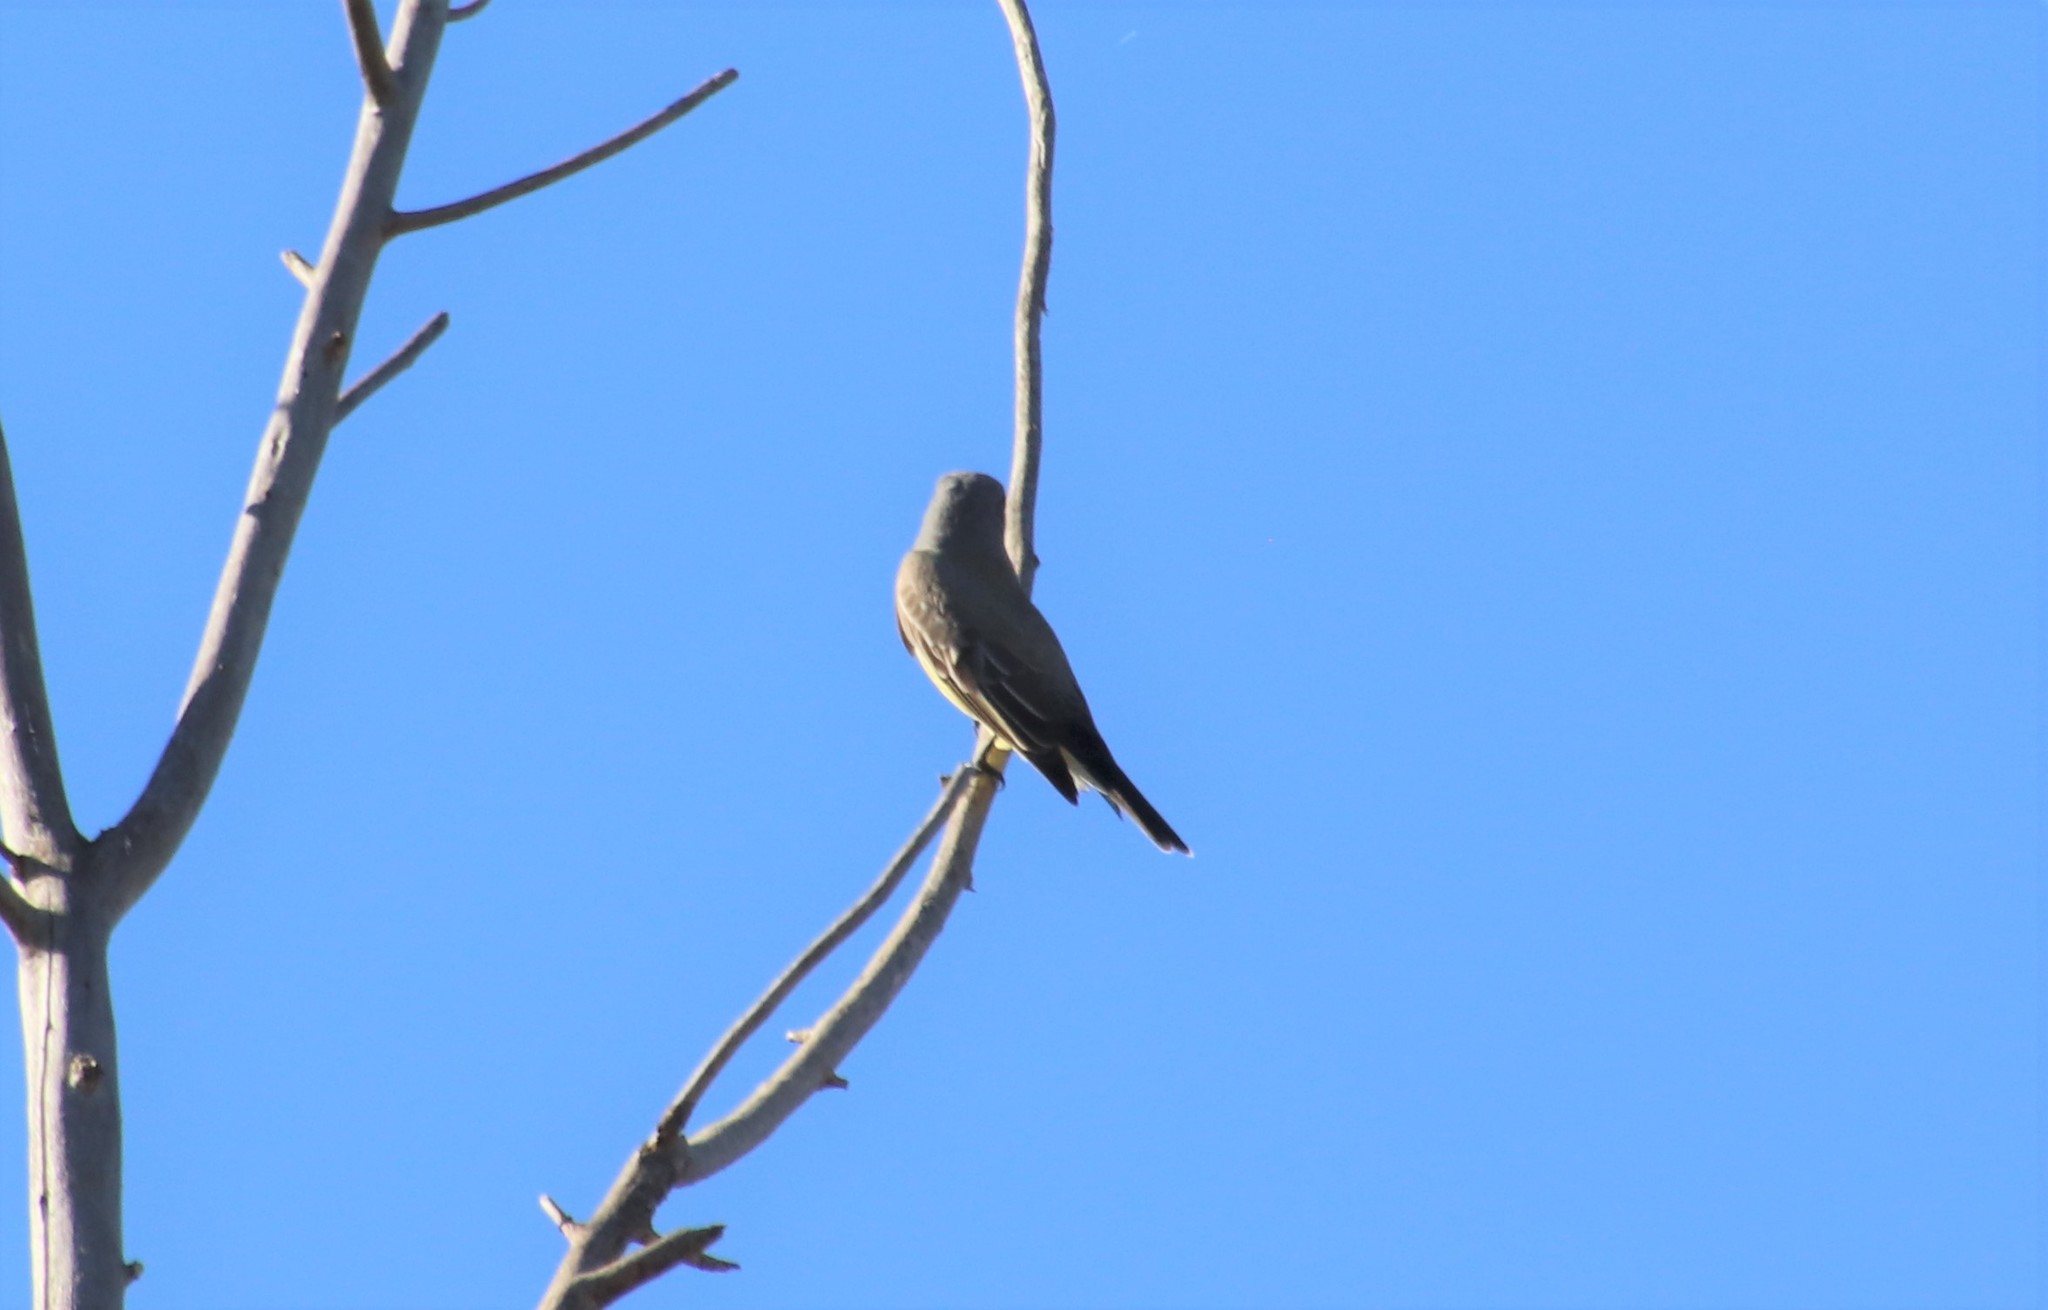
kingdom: Animalia
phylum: Chordata
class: Aves
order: Passeriformes
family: Tyrannidae
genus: Tyrannus
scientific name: Tyrannus vociferans
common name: Cassin's kingbird
